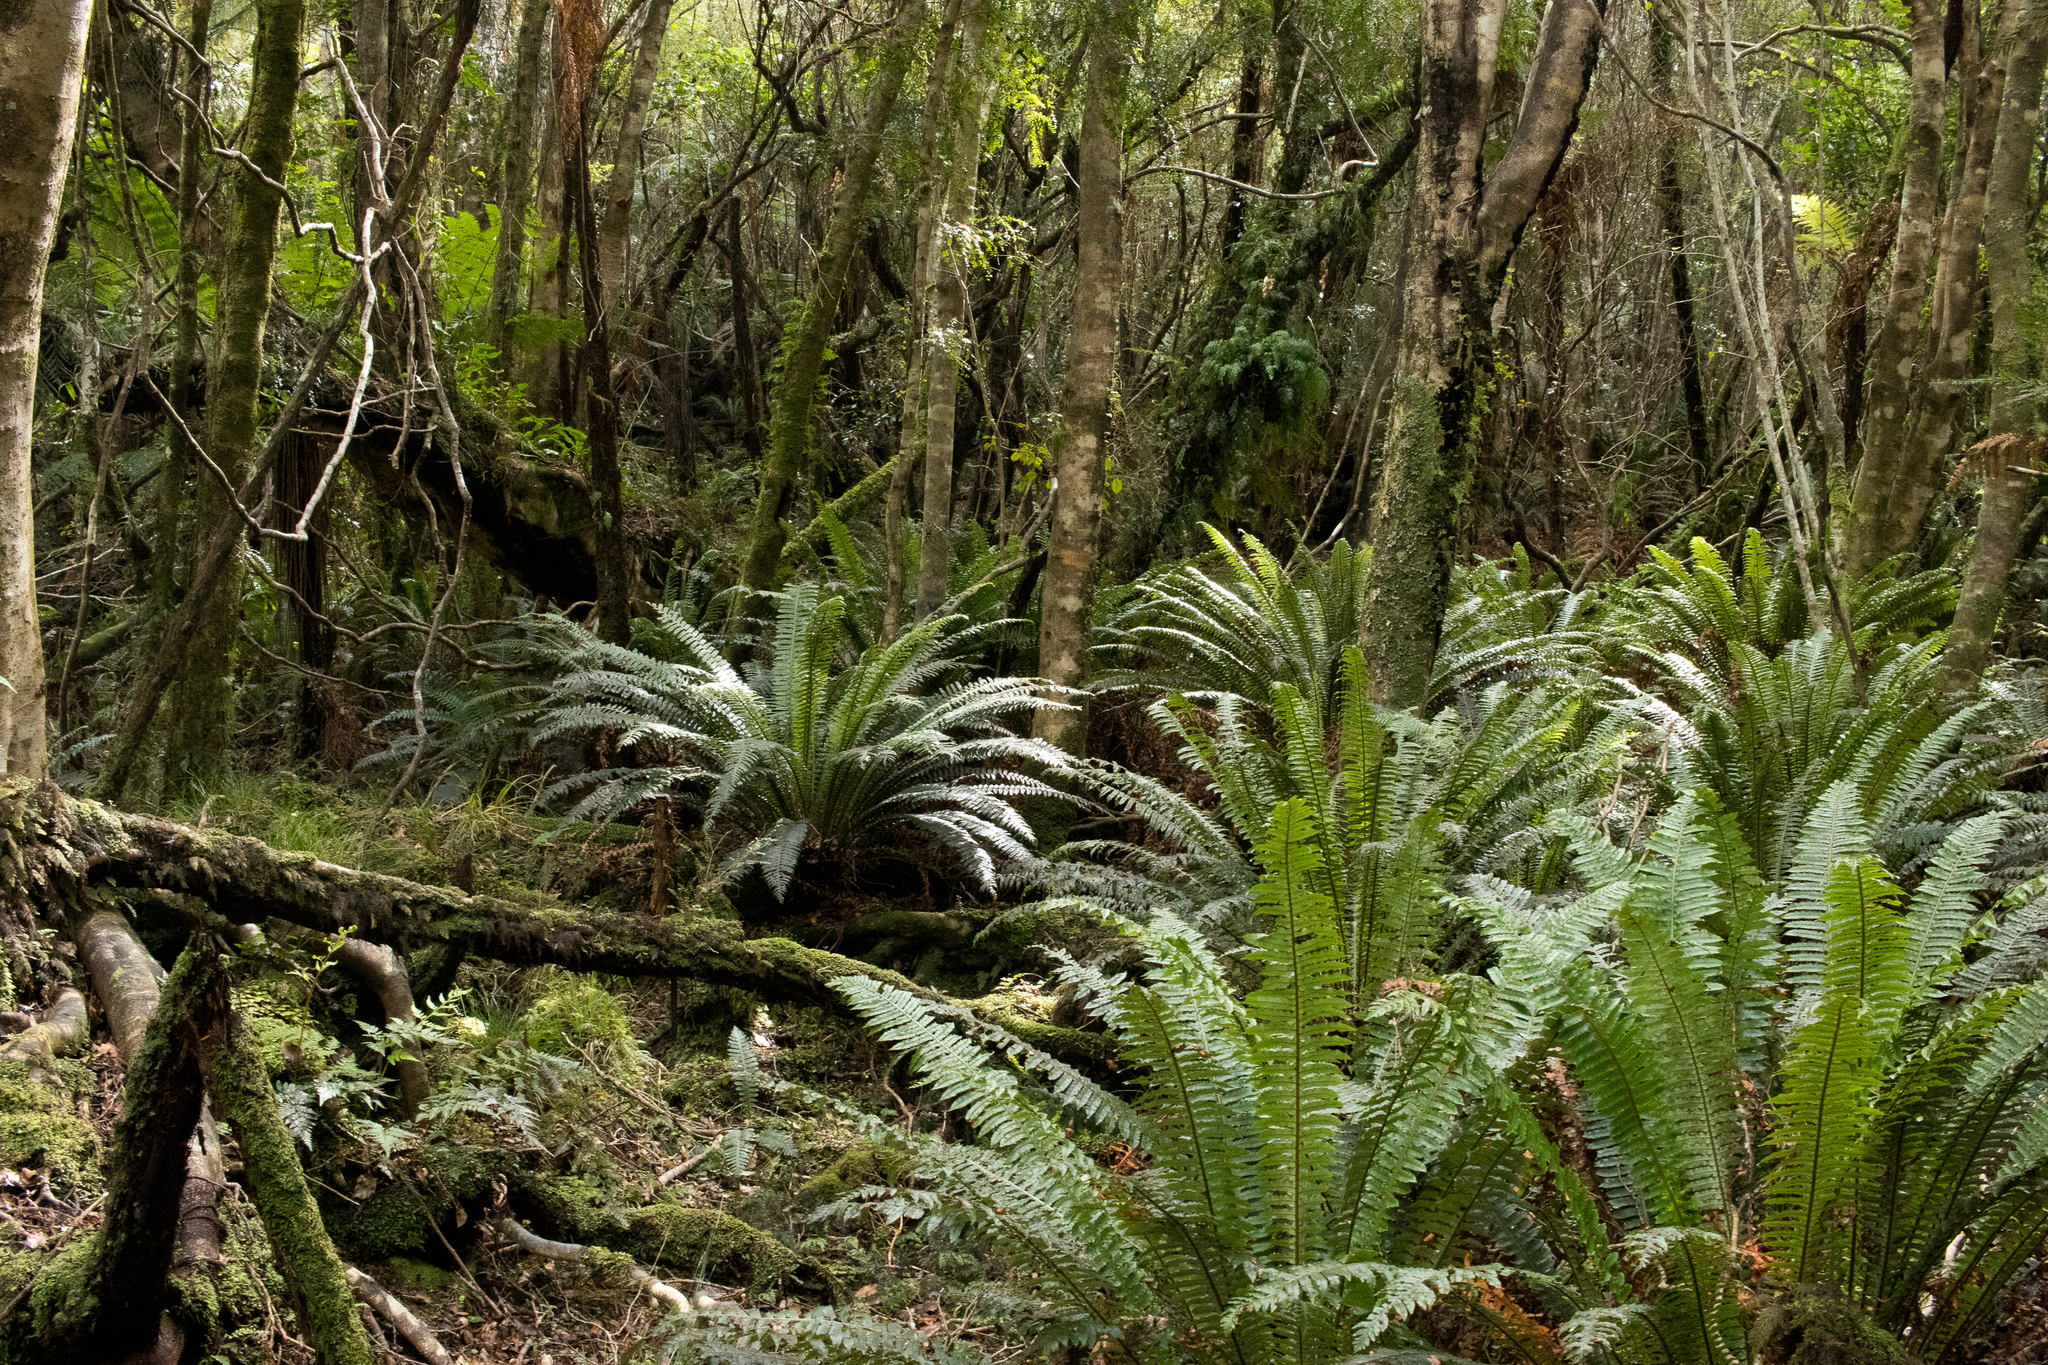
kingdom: Plantae
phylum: Tracheophyta
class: Polypodiopsida
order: Polypodiales
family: Blechnaceae
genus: Lomaria
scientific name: Lomaria discolor
